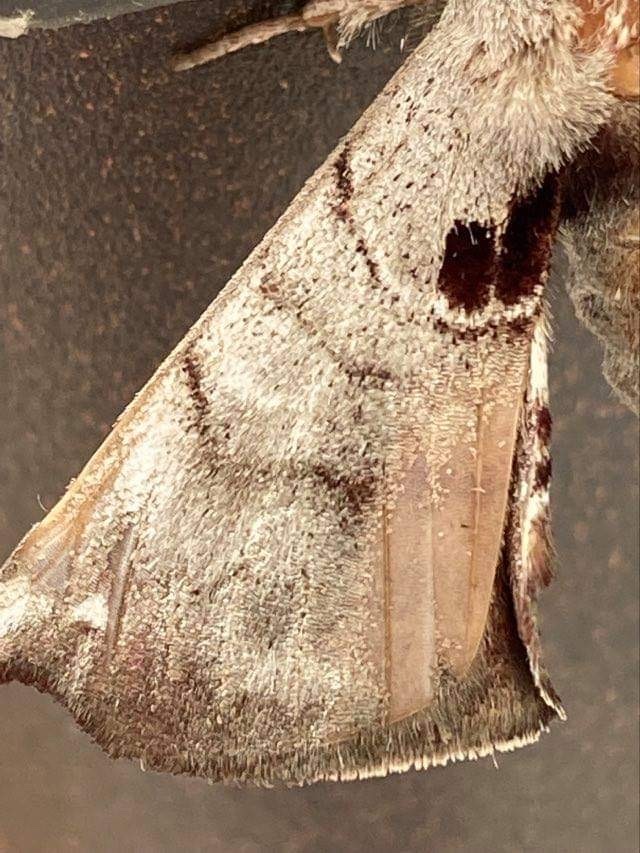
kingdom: Animalia
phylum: Arthropoda
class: Insecta
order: Lepidoptera
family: Apatelodidae
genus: Hygrochroa
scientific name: Hygrochroa Apatelodes torrefacta
